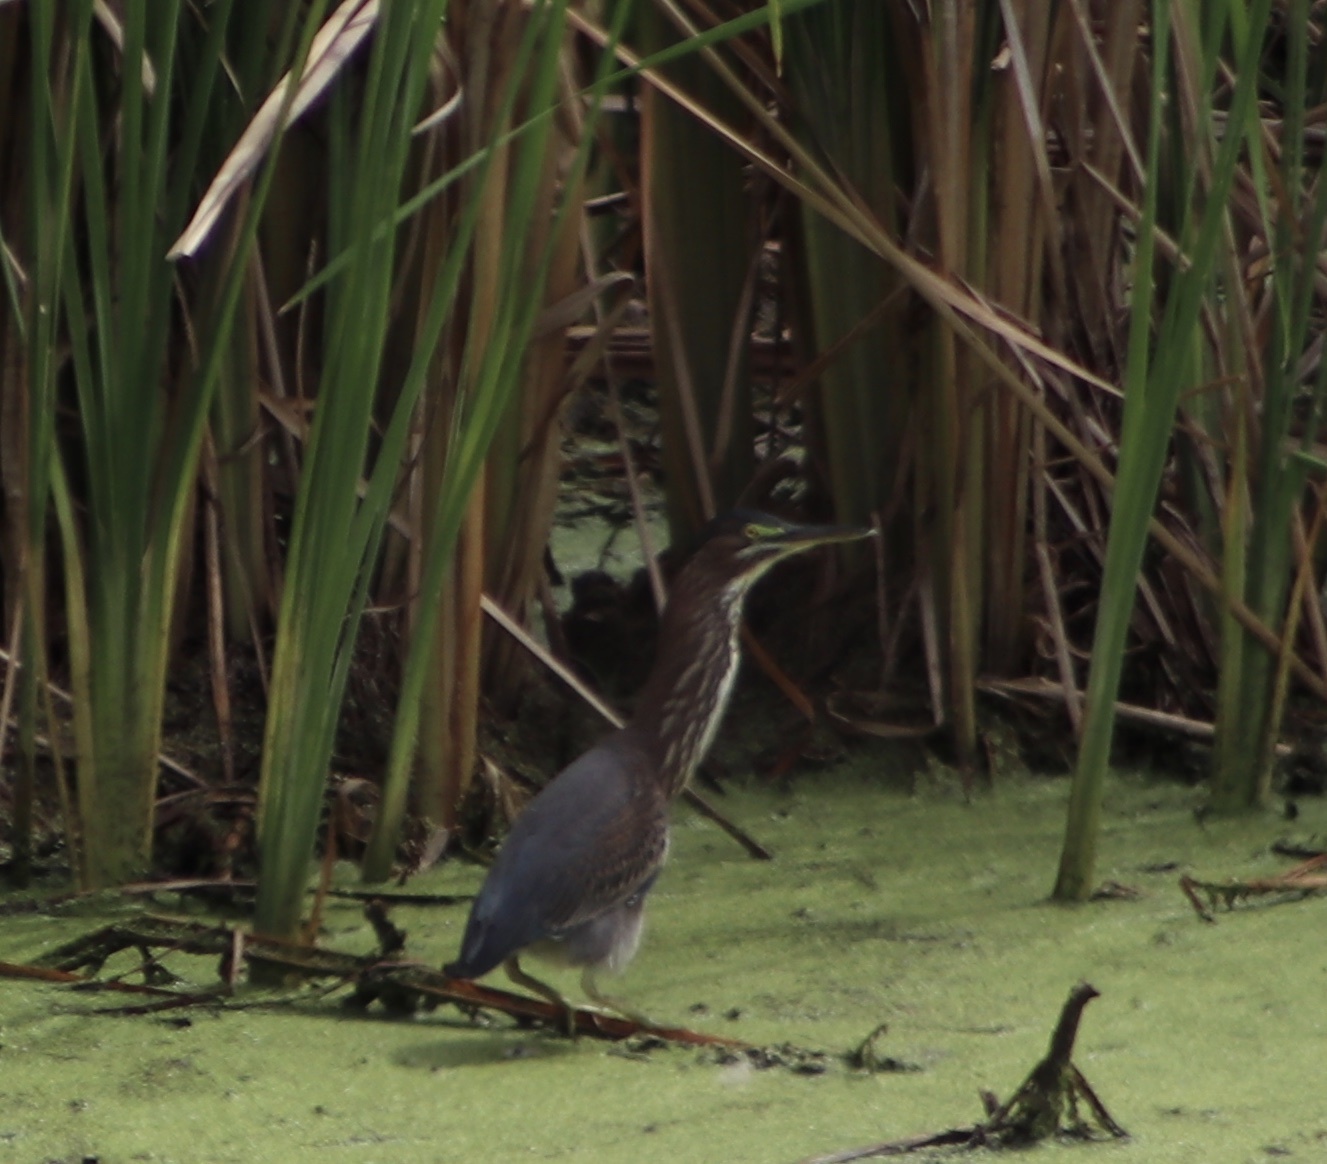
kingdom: Animalia
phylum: Chordata
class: Aves
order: Pelecaniformes
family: Ardeidae
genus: Butorides
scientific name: Butorides virescens
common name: Green heron
